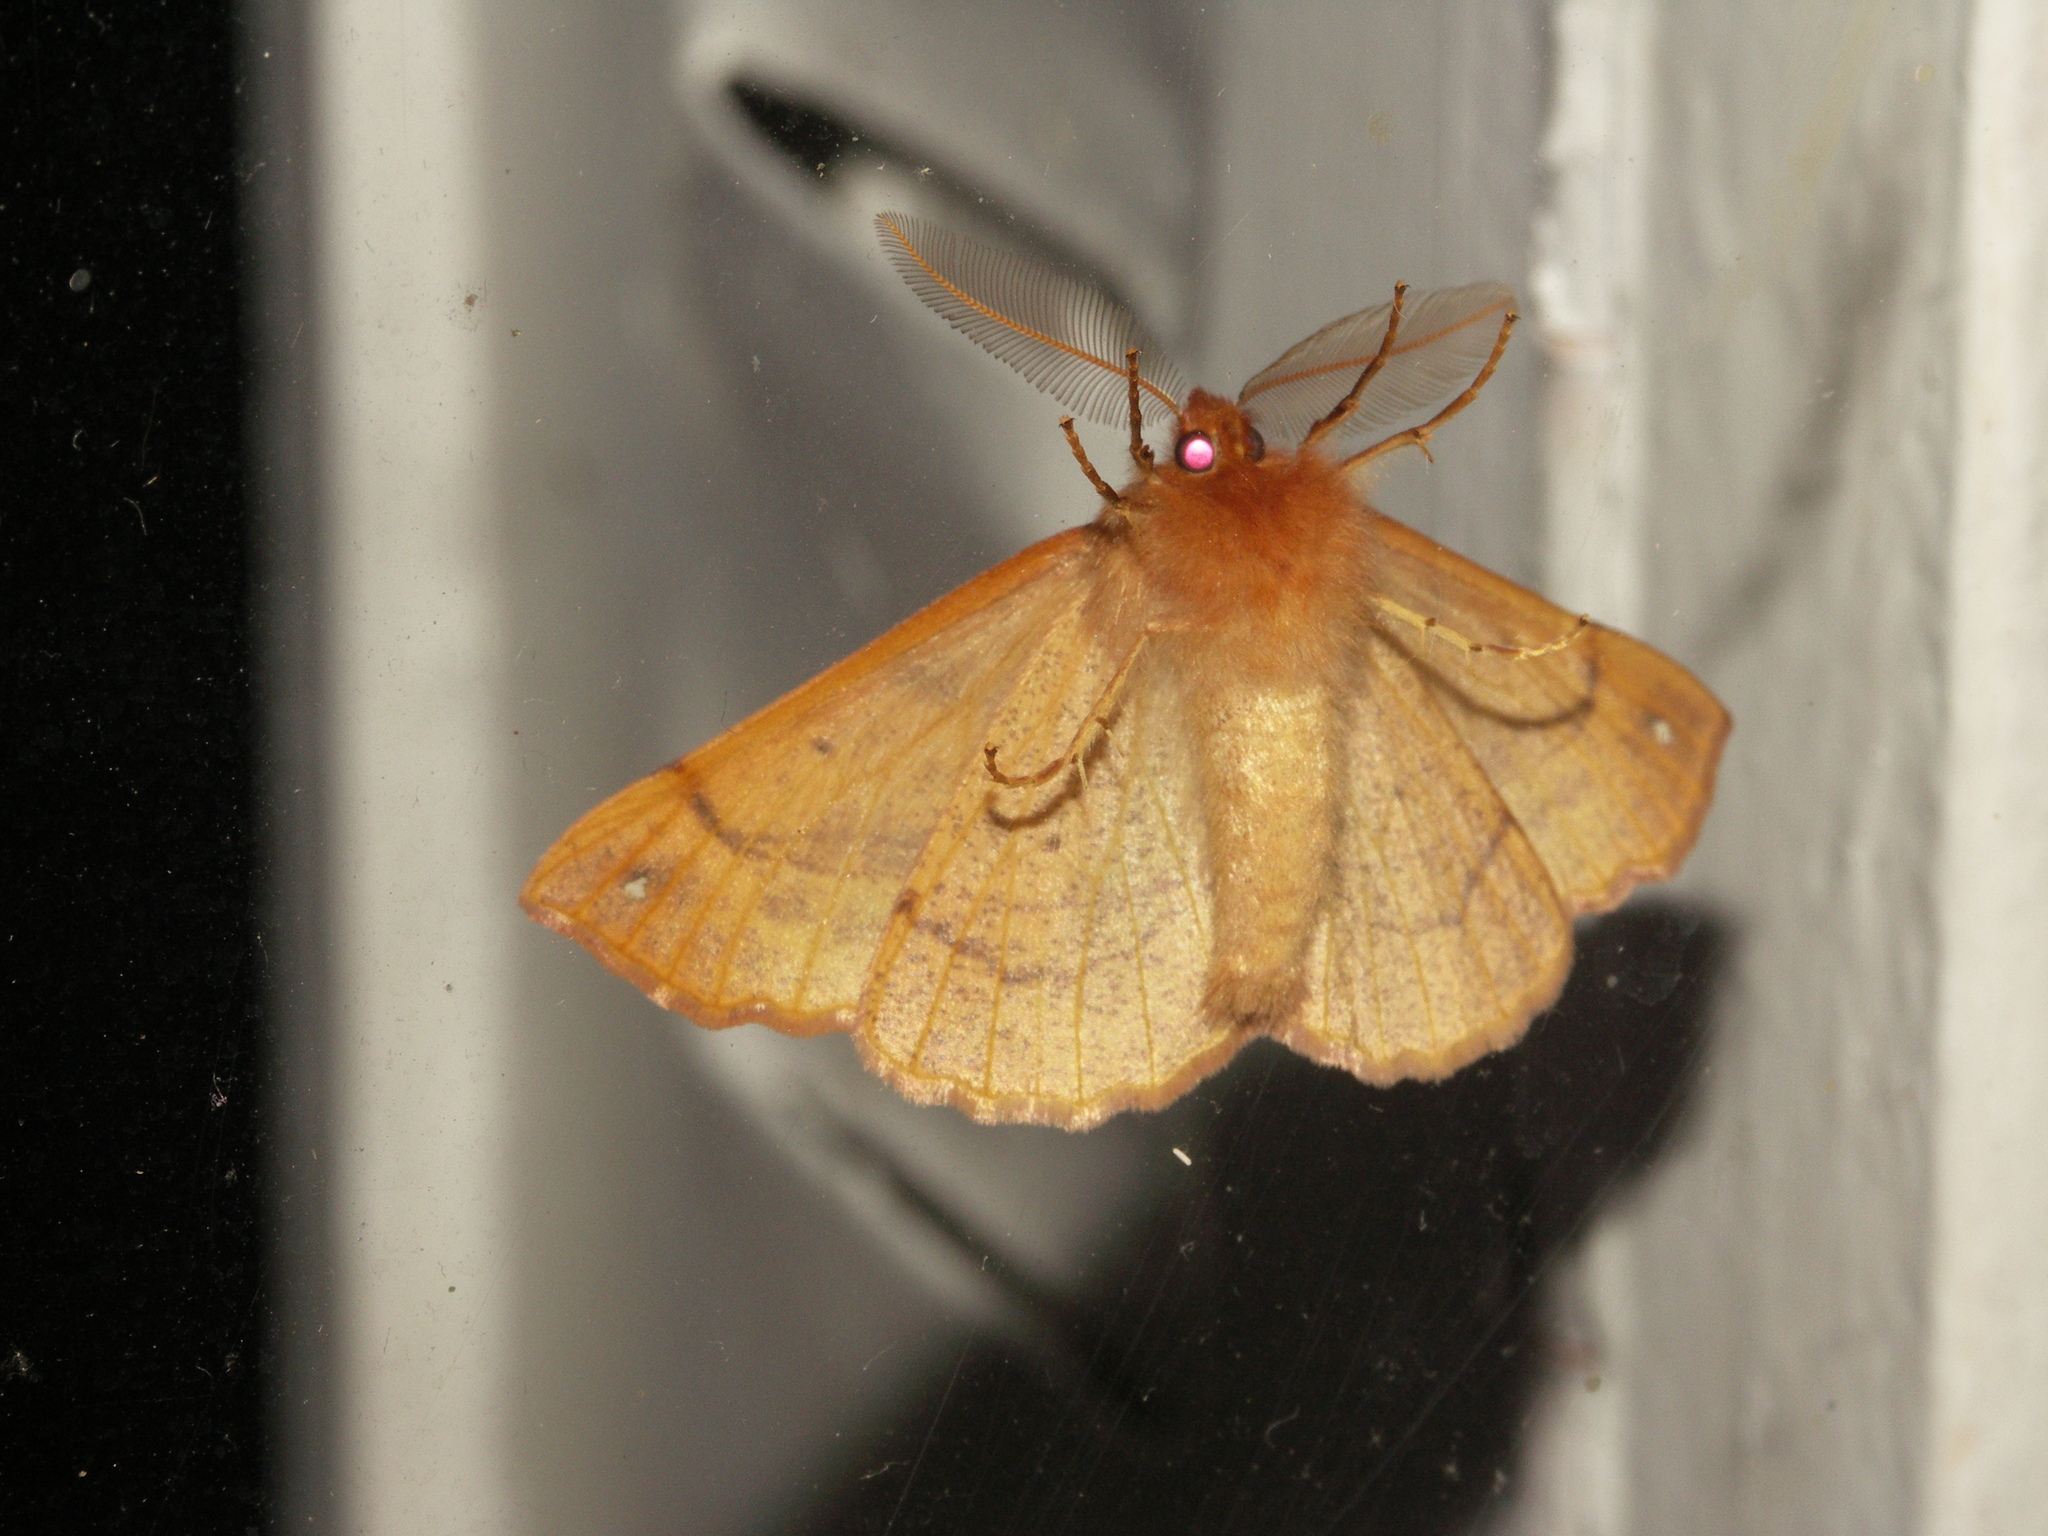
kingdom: Animalia
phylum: Arthropoda
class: Insecta
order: Lepidoptera
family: Geometridae
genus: Colotois
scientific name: Colotois pennaria
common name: Feathered thorn
